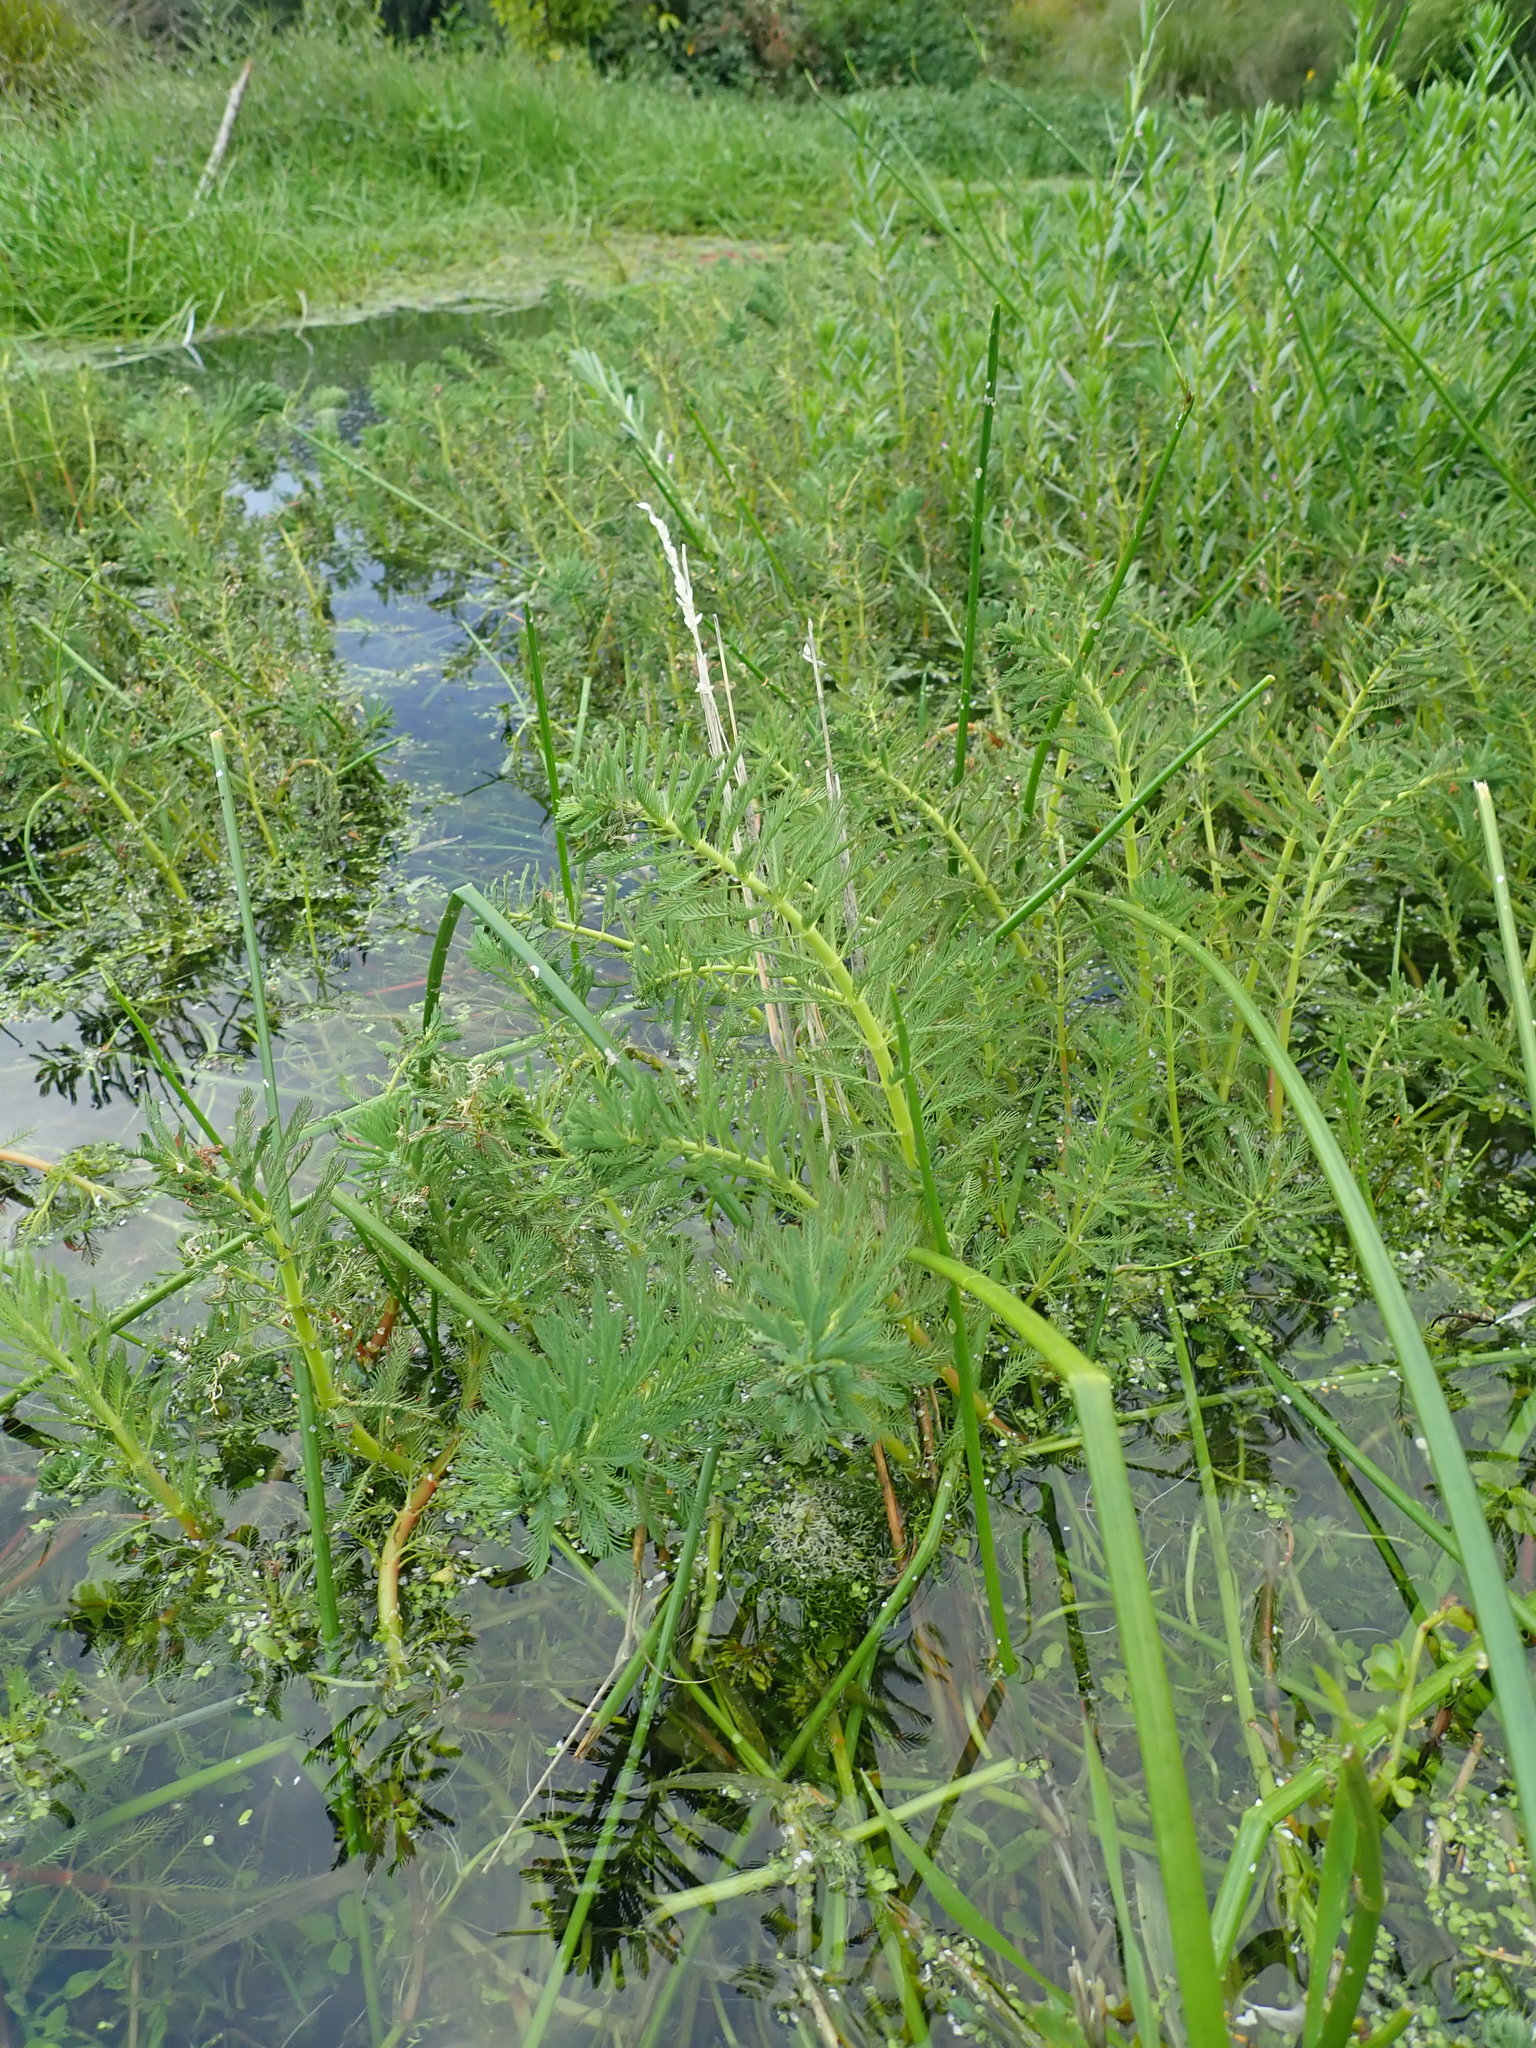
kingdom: Plantae
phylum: Tracheophyta
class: Magnoliopsida
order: Saxifragales
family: Haloragaceae
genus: Myriophyllum
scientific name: Myriophyllum aquaticum
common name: Parrot's feather
